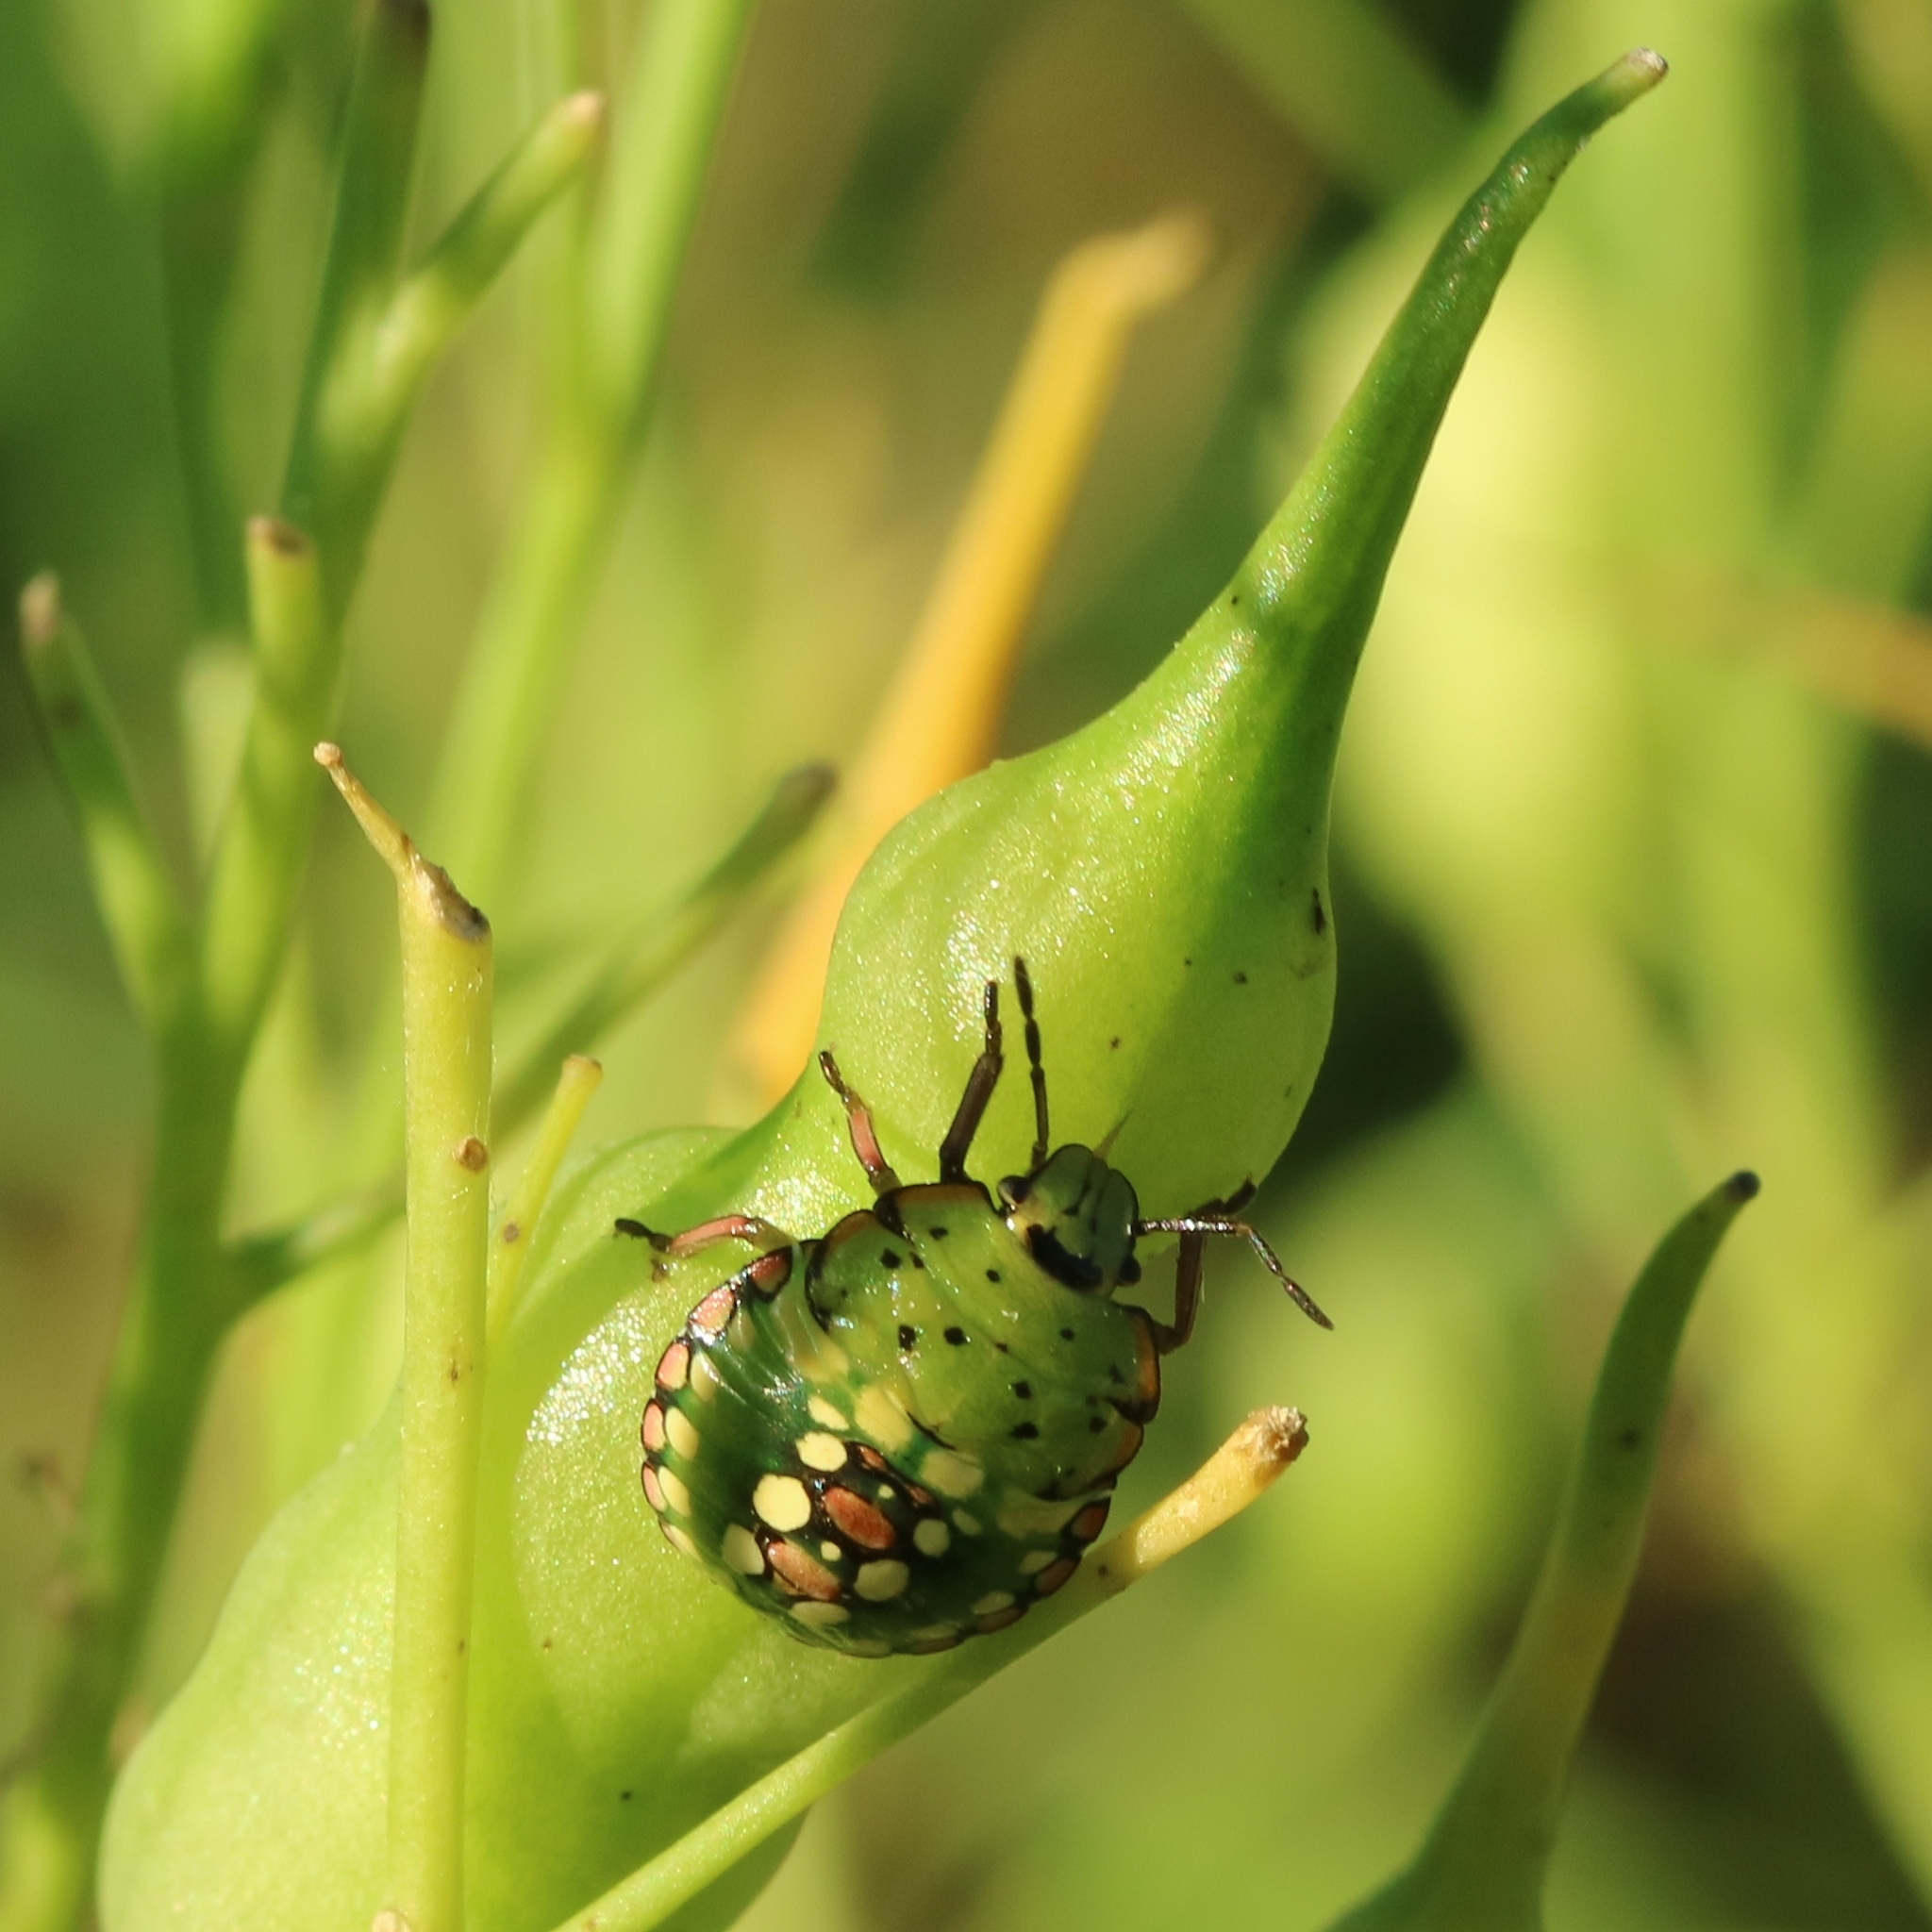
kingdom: Animalia
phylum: Arthropoda
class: Insecta
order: Hemiptera
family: Pentatomidae
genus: Nezara
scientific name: Nezara viridula
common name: Southern green stink bug
